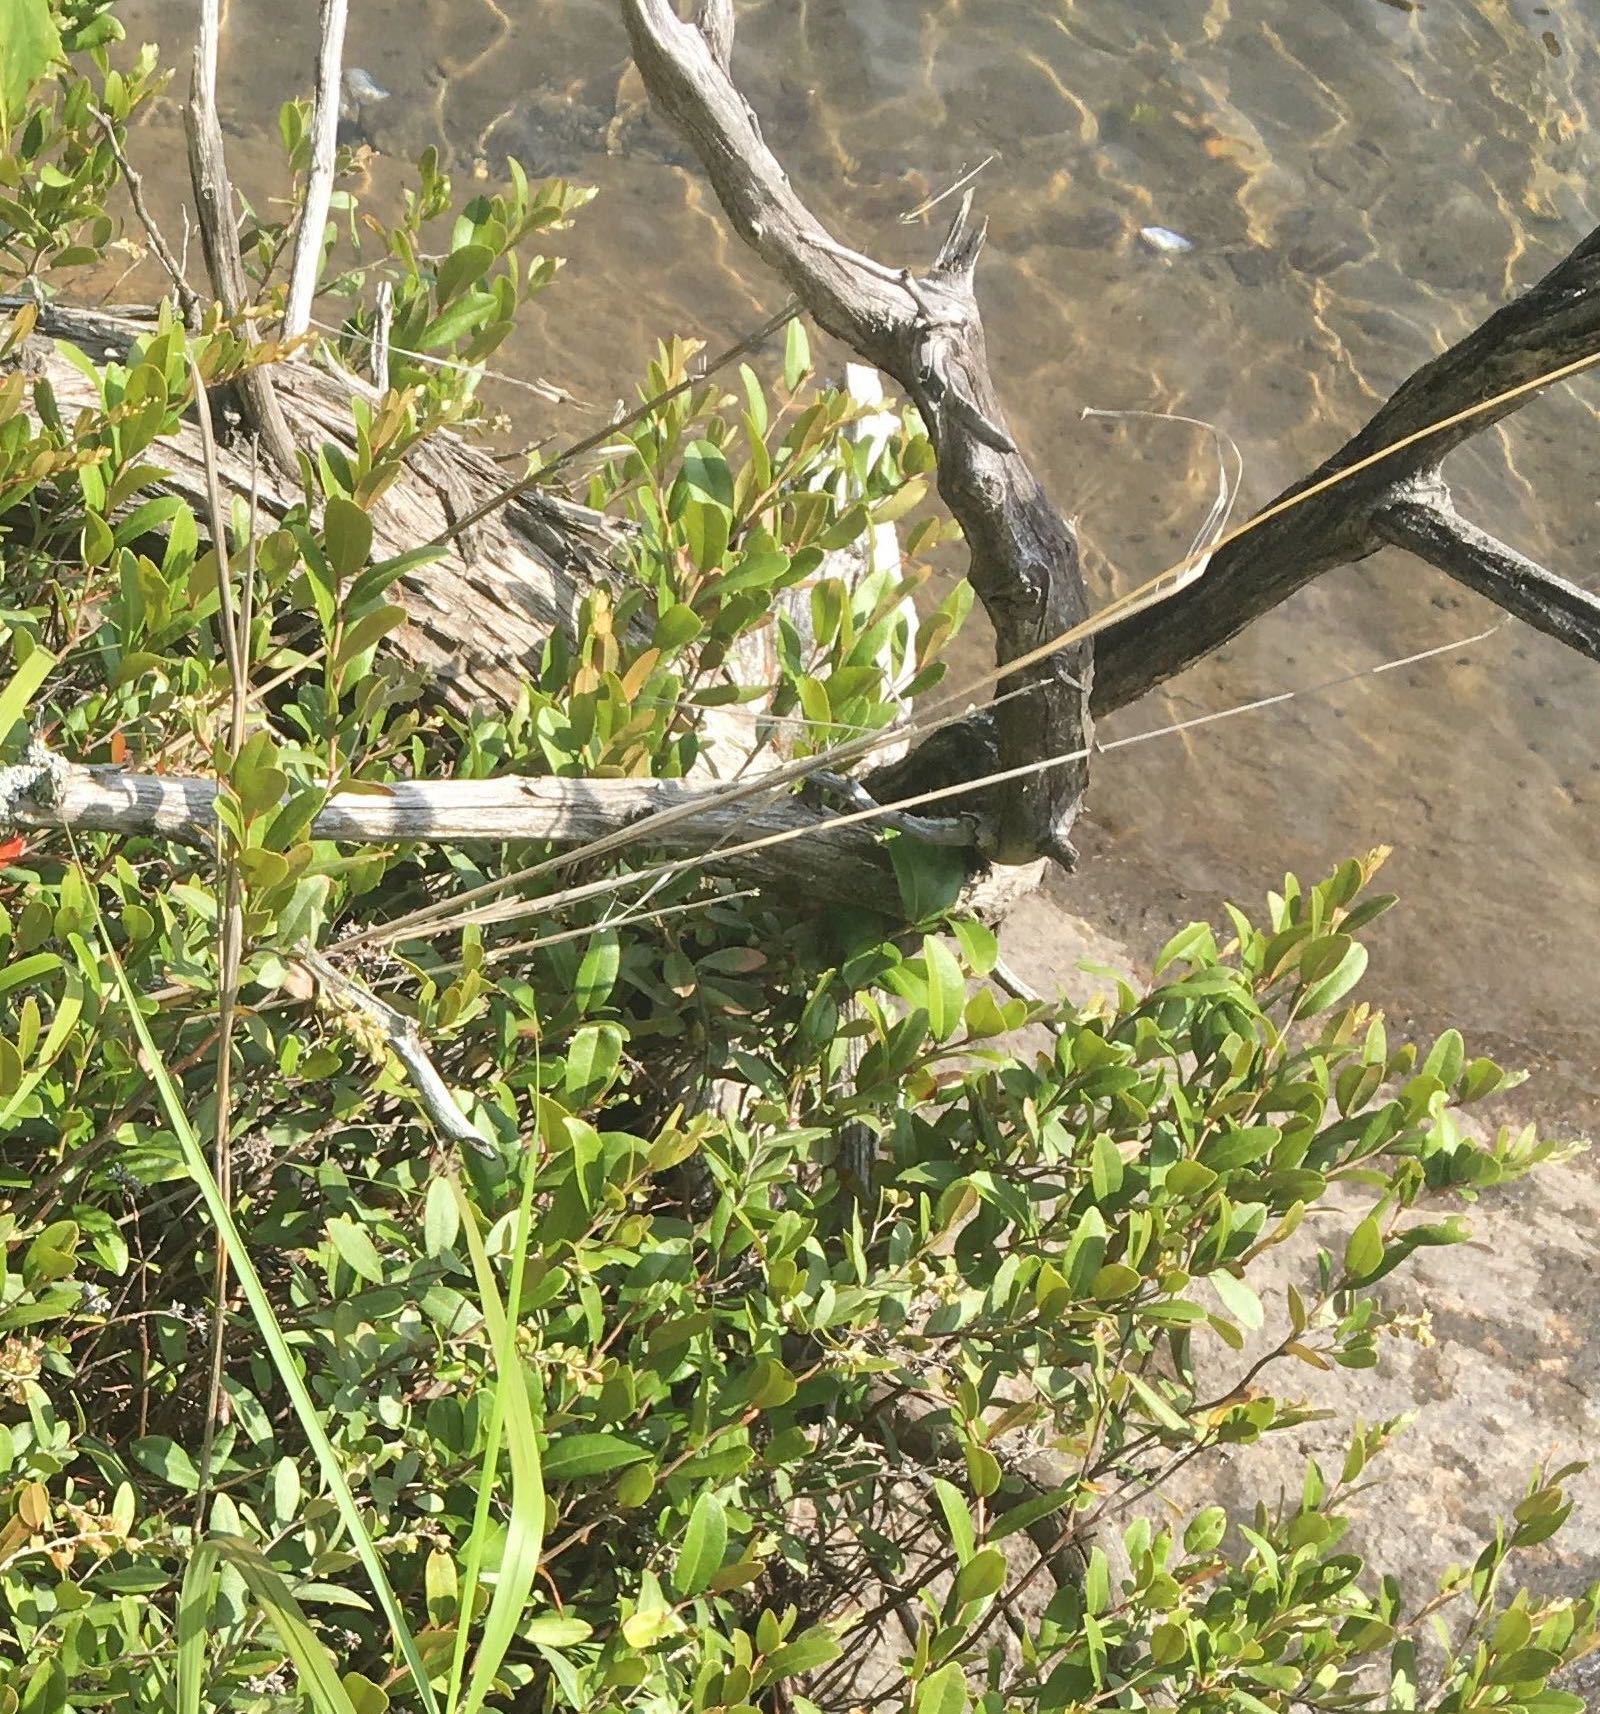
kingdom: Plantae
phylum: Tracheophyta
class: Magnoliopsida
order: Ericales
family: Ericaceae
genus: Chamaedaphne
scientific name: Chamaedaphne calyculata
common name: Leatherleaf
